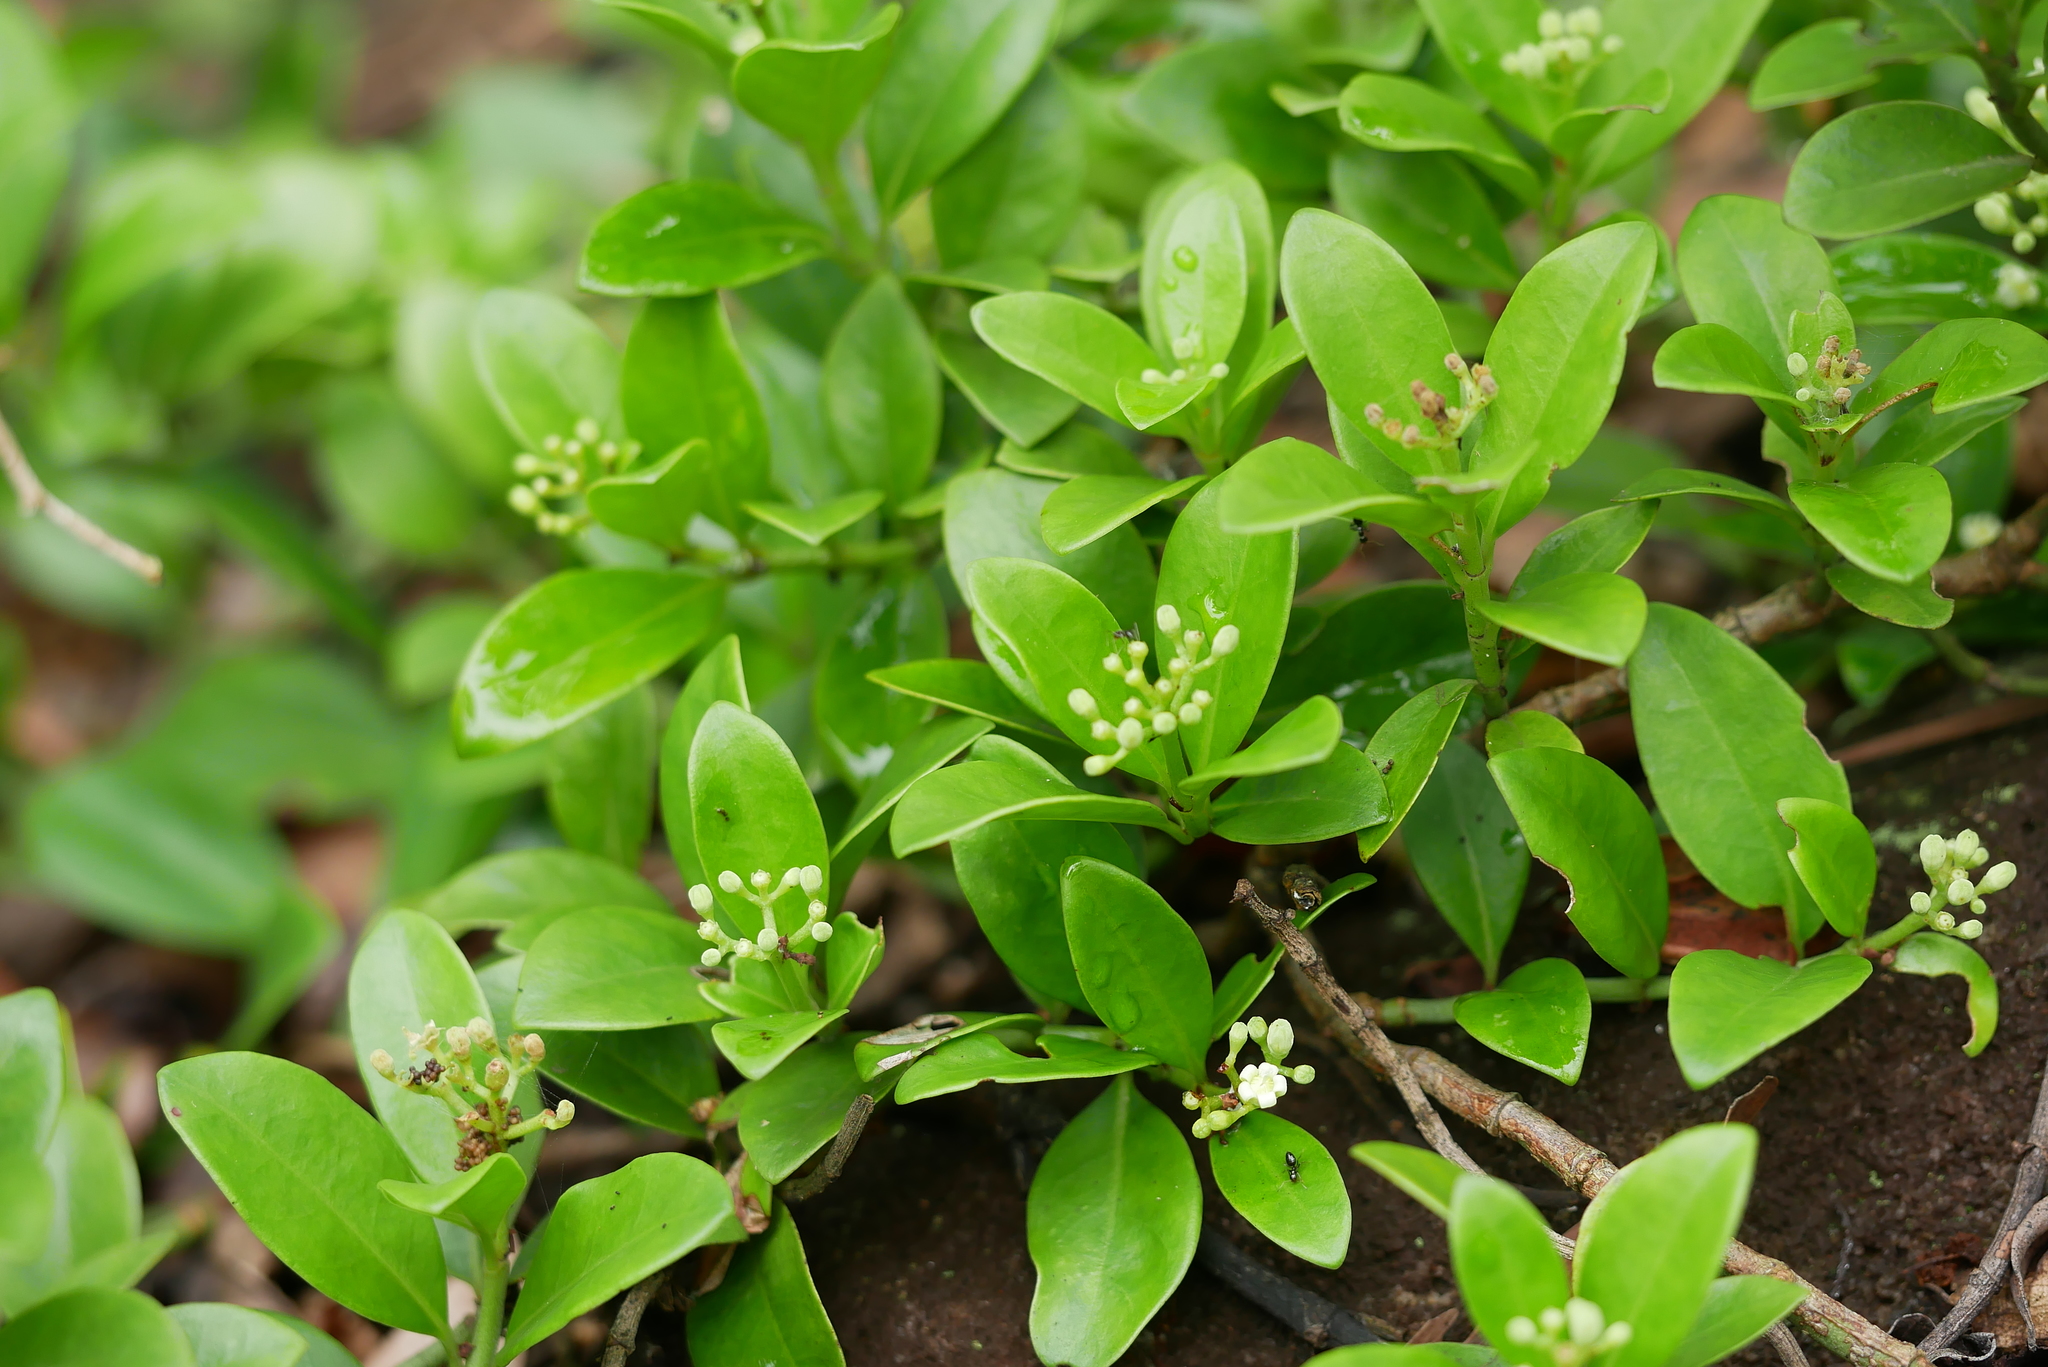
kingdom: Plantae
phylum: Tracheophyta
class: Magnoliopsida
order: Gentianales
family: Rubiaceae
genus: Psychotria
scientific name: Psychotria serpens
